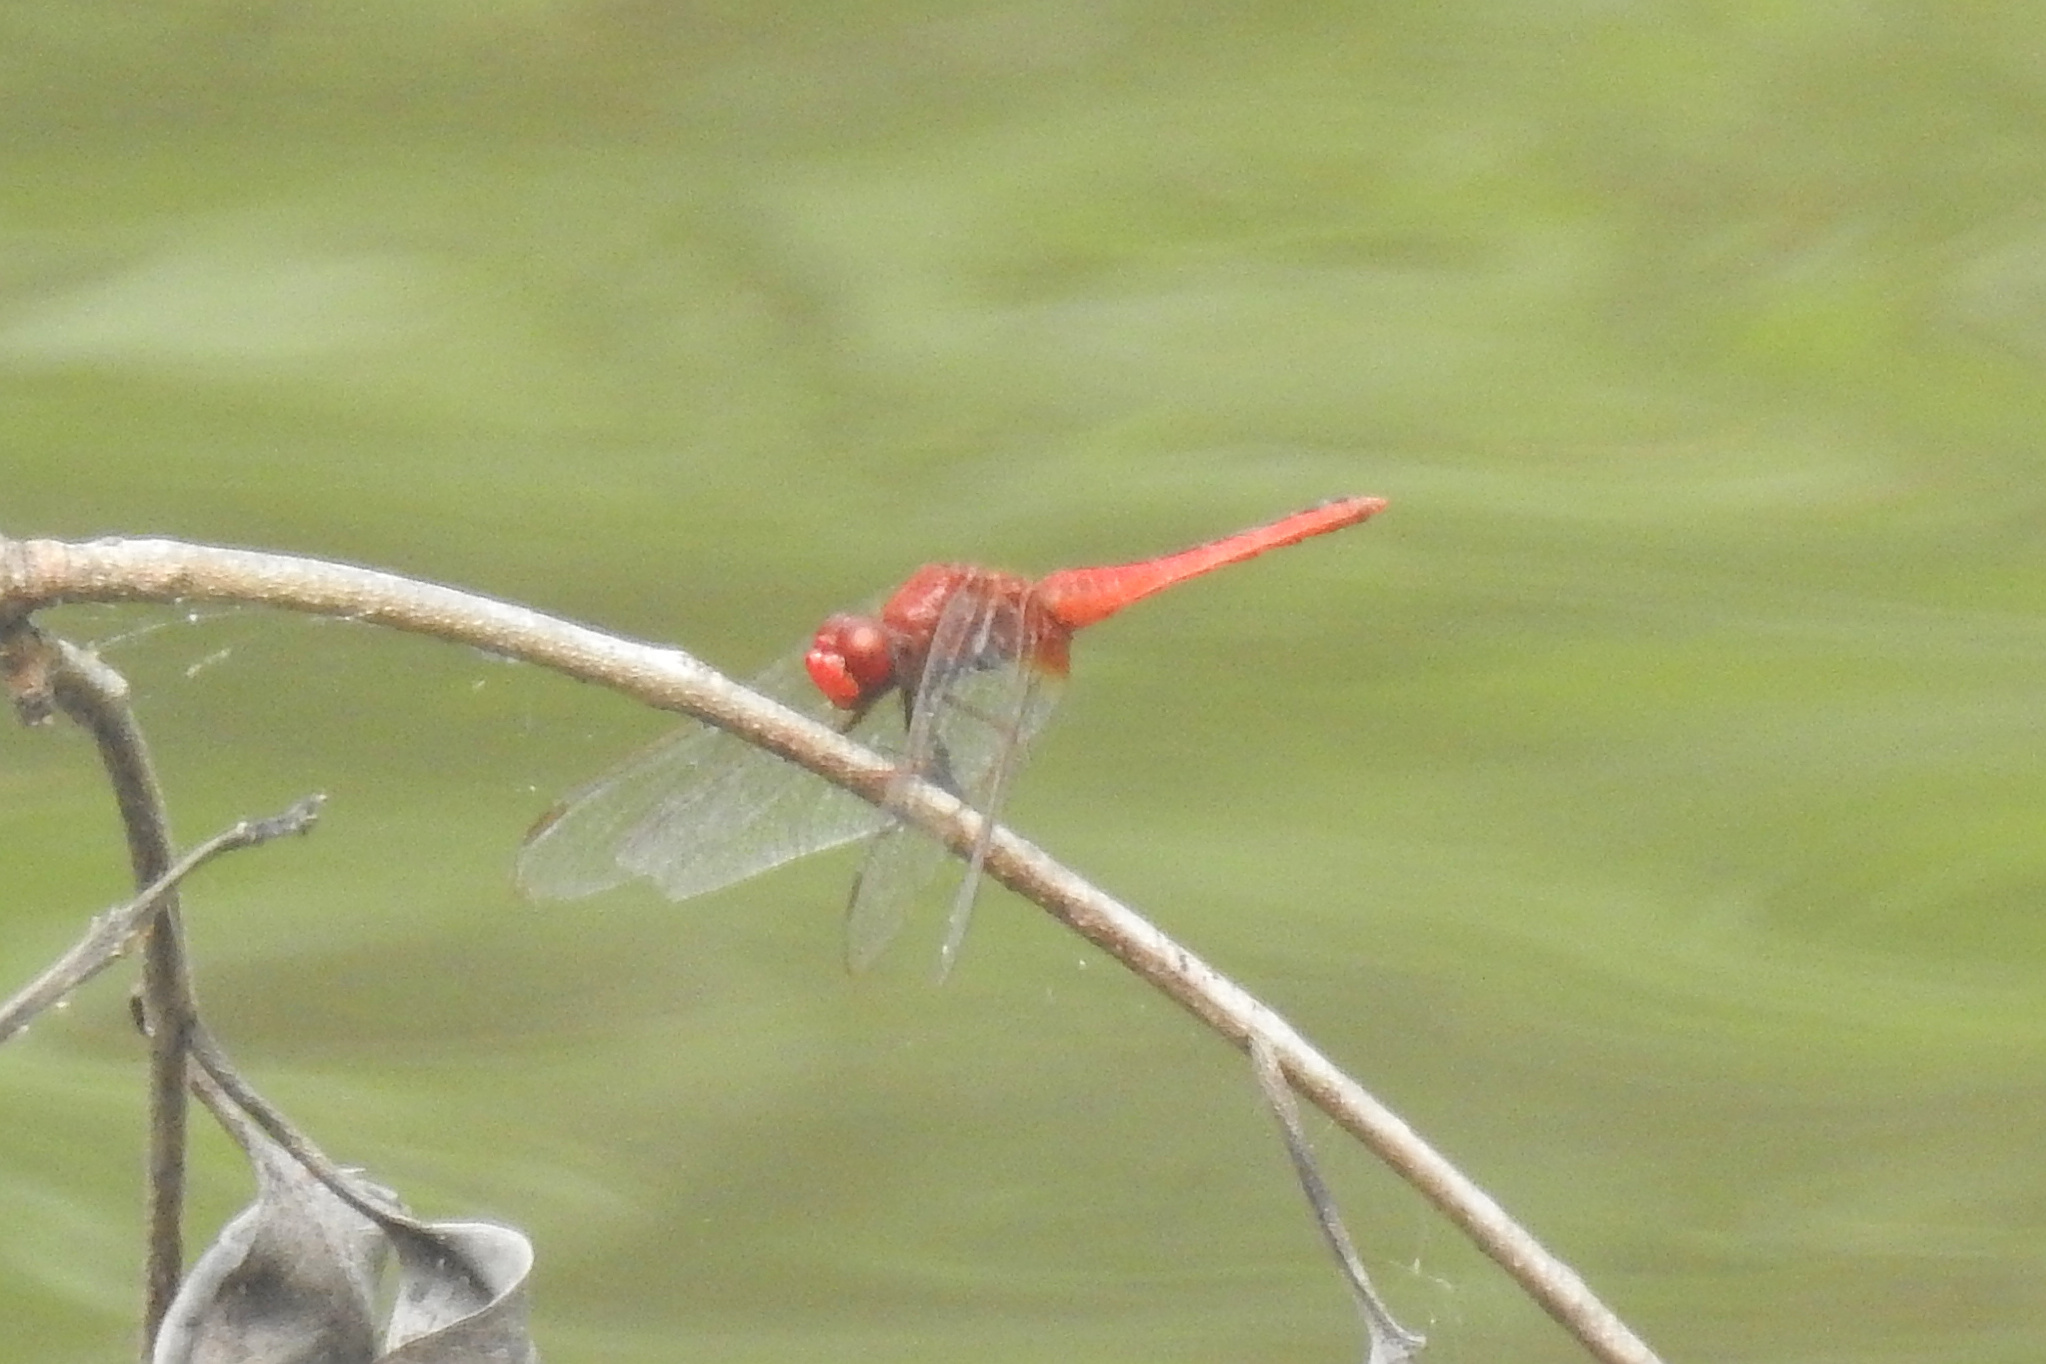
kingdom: Animalia
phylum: Arthropoda
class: Insecta
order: Odonata
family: Libellulidae
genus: Crocothemis
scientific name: Crocothemis servilia
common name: Scarlet skimmer
